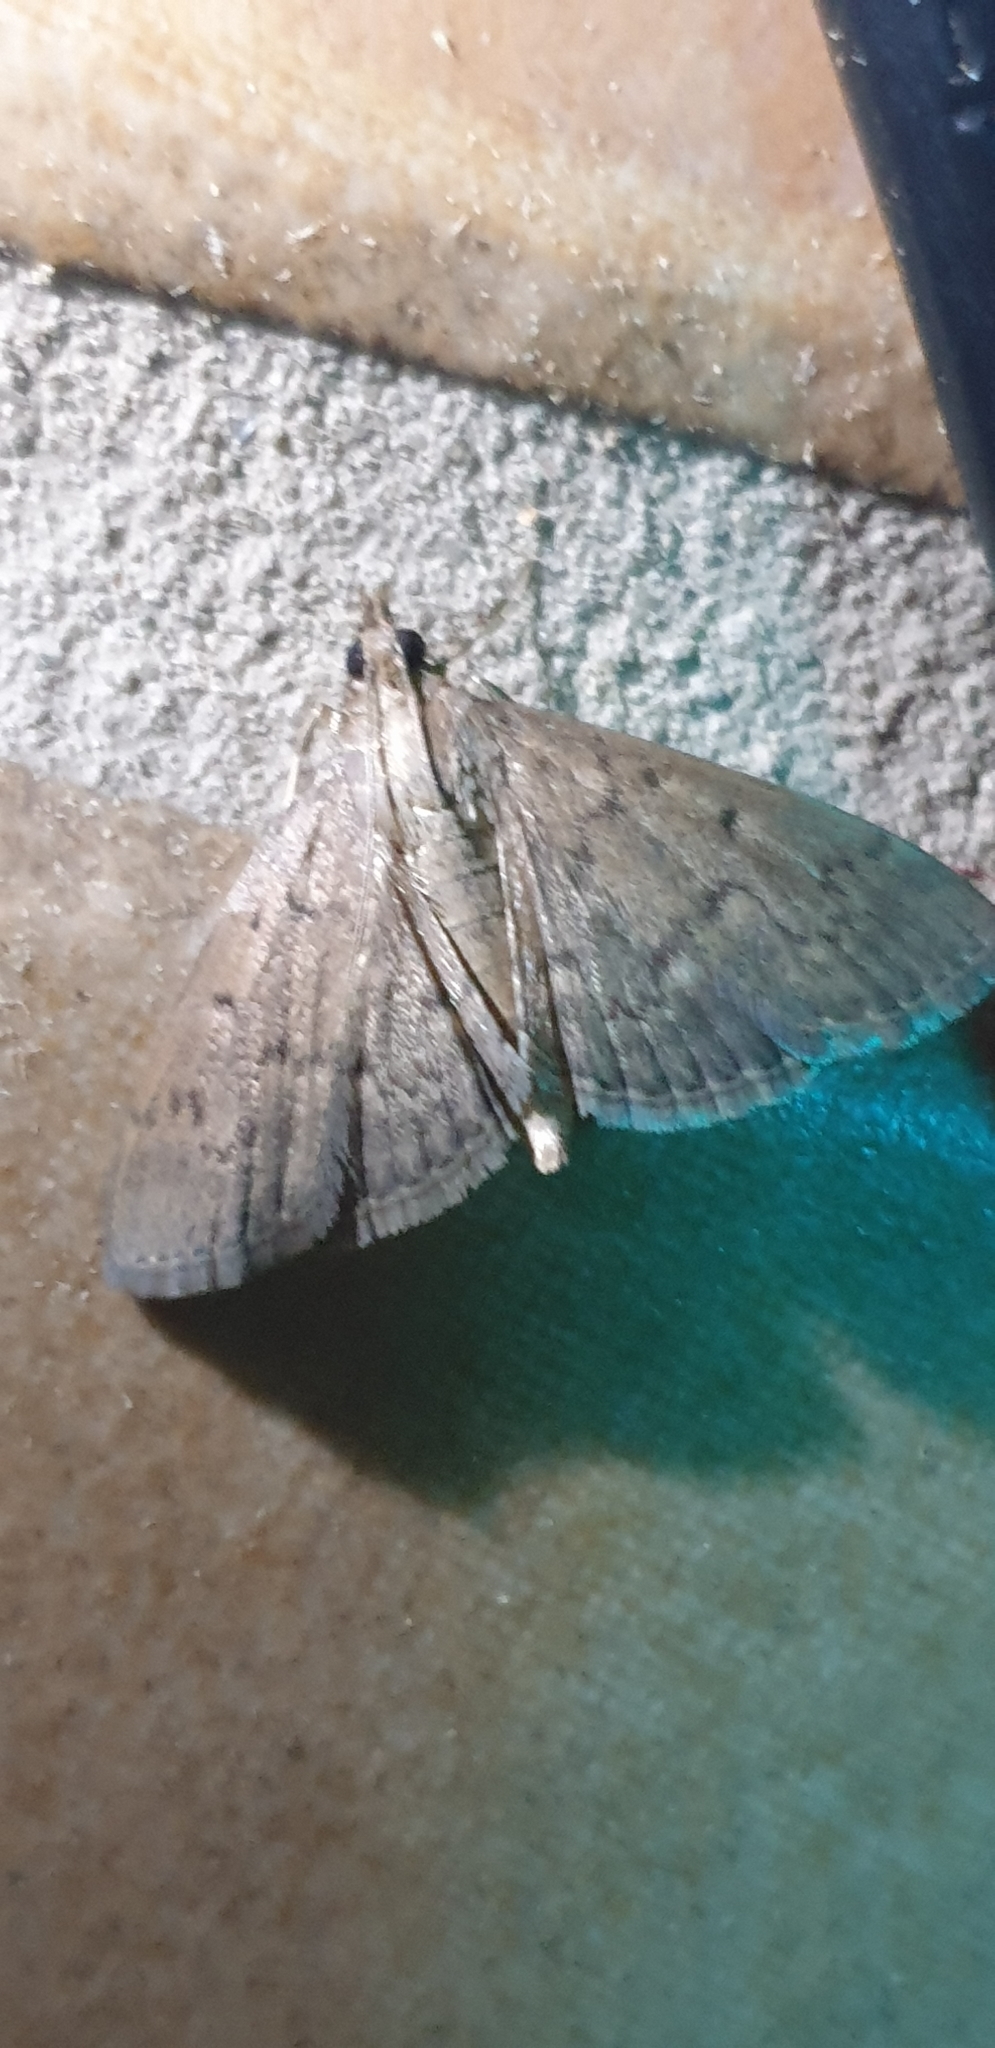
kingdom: Animalia
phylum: Arthropoda
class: Insecta
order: Lepidoptera
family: Crambidae
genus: Herpetogramma
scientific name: Herpetogramma licarsisalis
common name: Grass webworm
